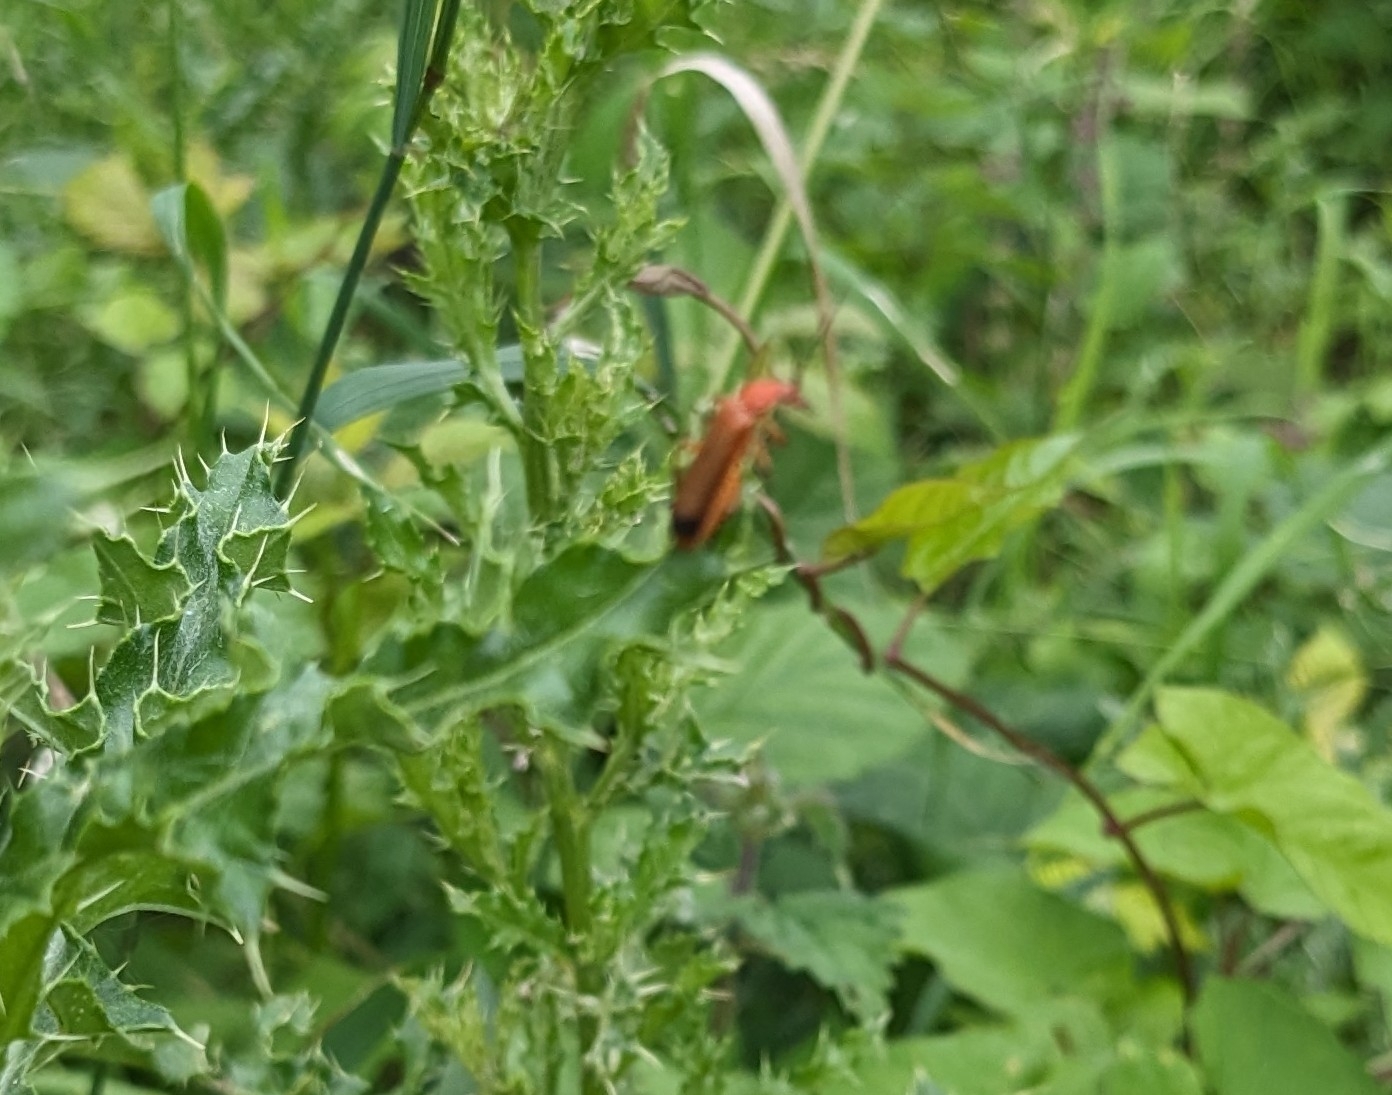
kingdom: Animalia
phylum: Arthropoda
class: Insecta
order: Coleoptera
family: Cantharidae
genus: Rhagonycha
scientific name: Rhagonycha fulva
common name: Common red soldier beetle
